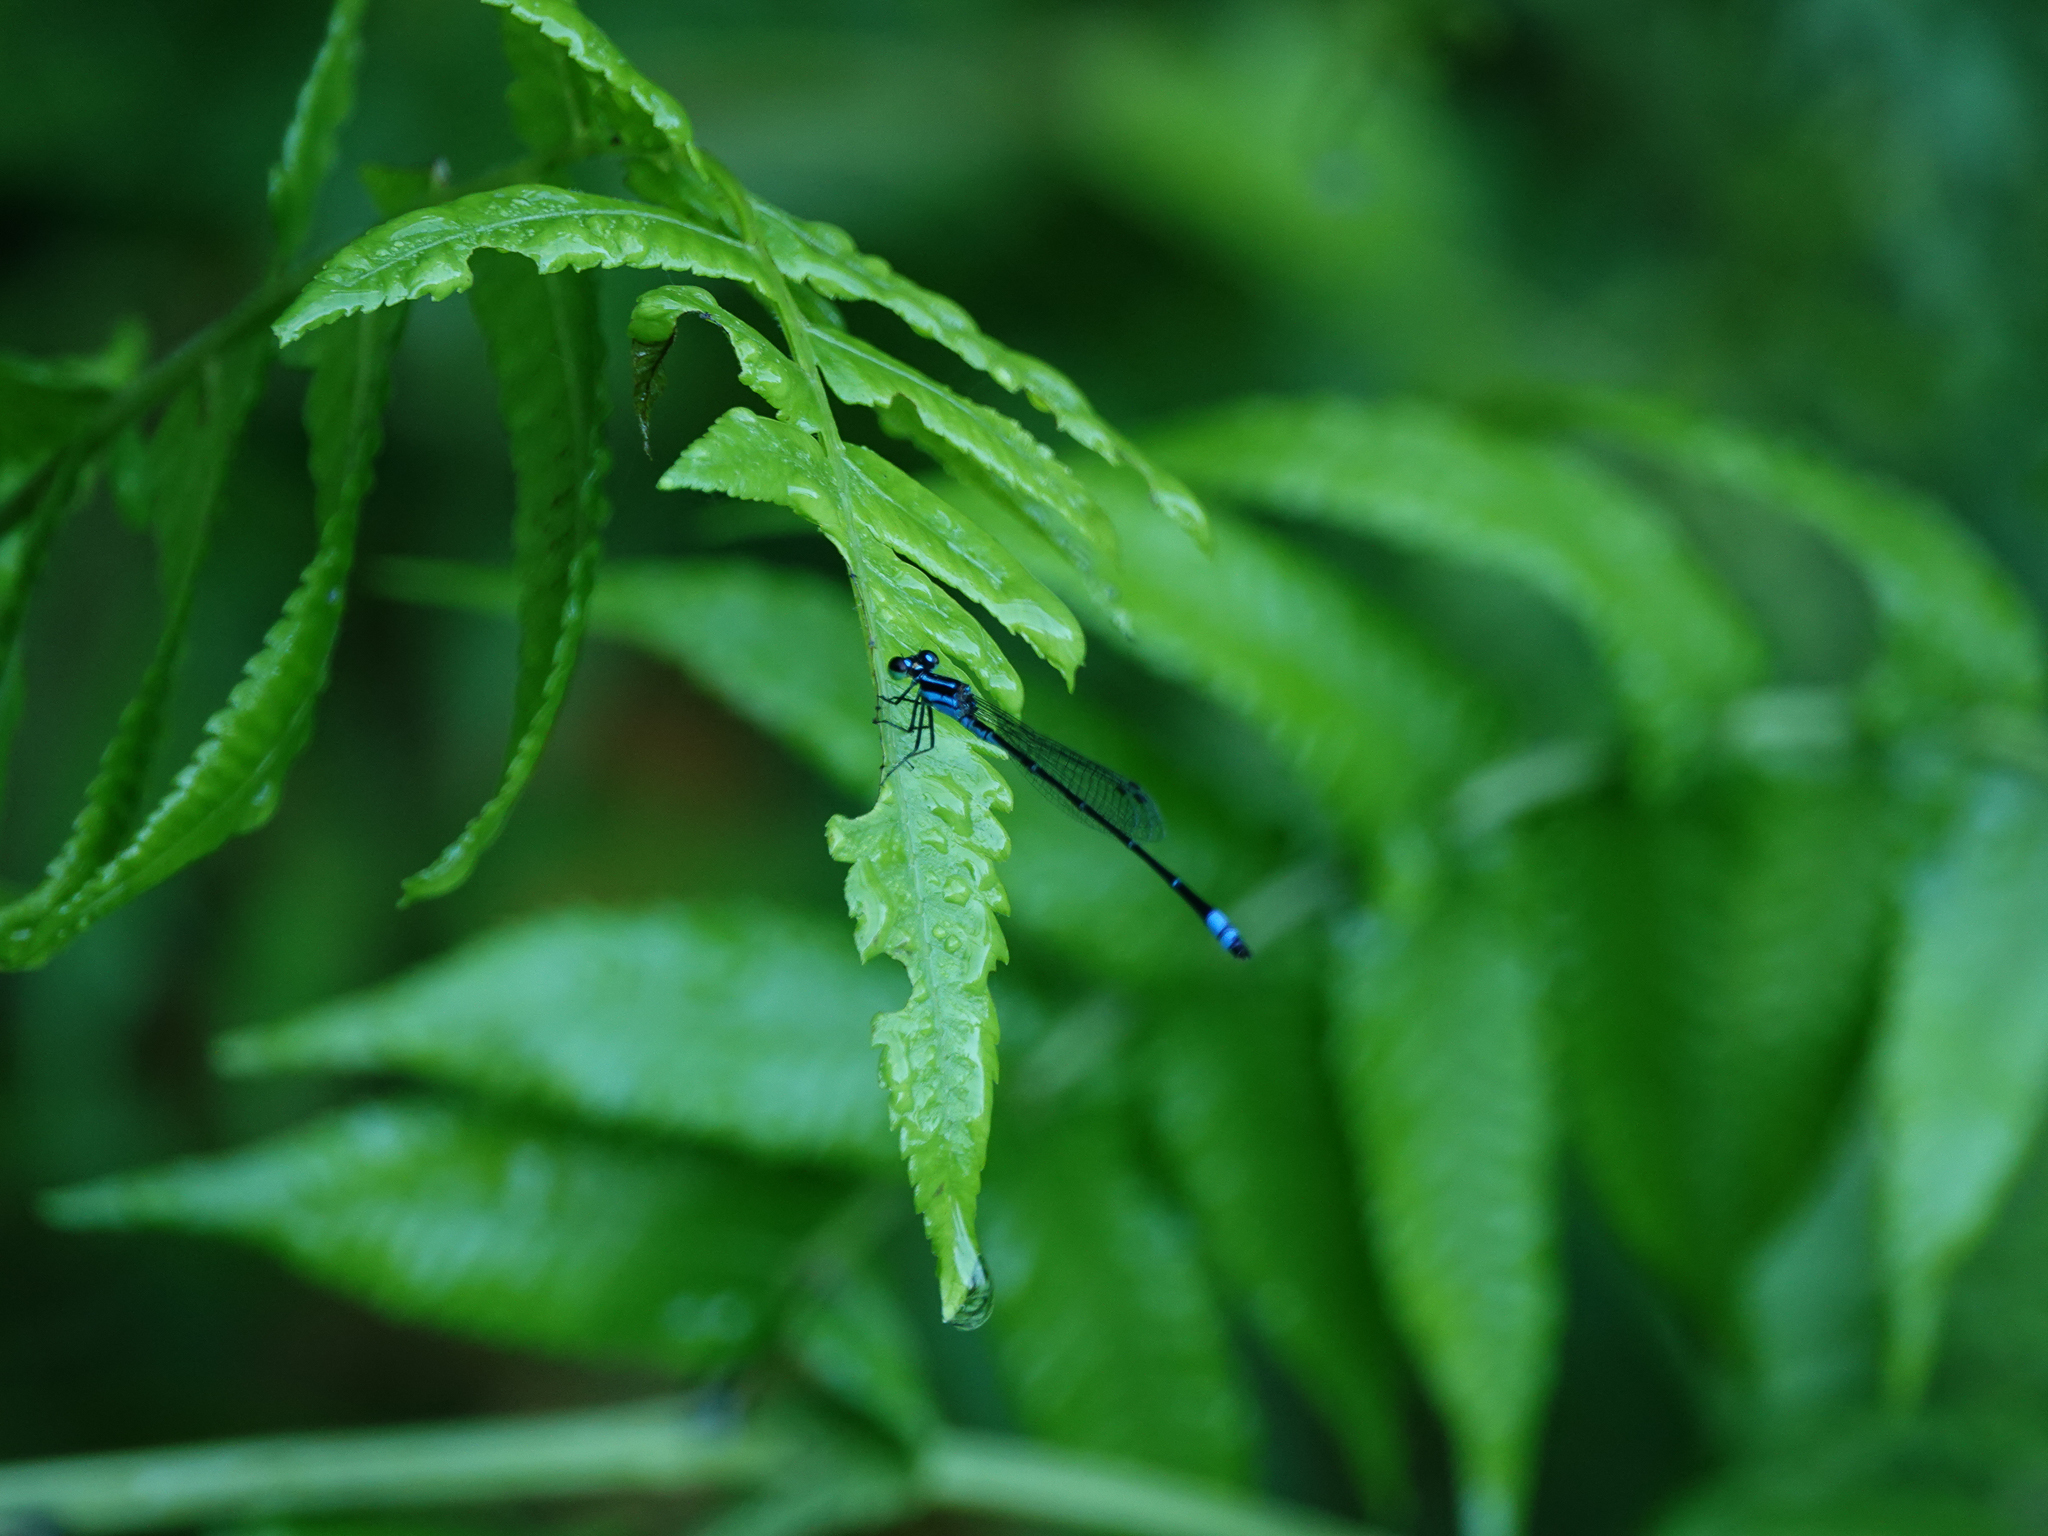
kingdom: Animalia
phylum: Arthropoda
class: Insecta
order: Odonata
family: Coenagrionidae
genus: Argiocnemis
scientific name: Argiocnemis rubescens
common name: Red-tipped shadefly
